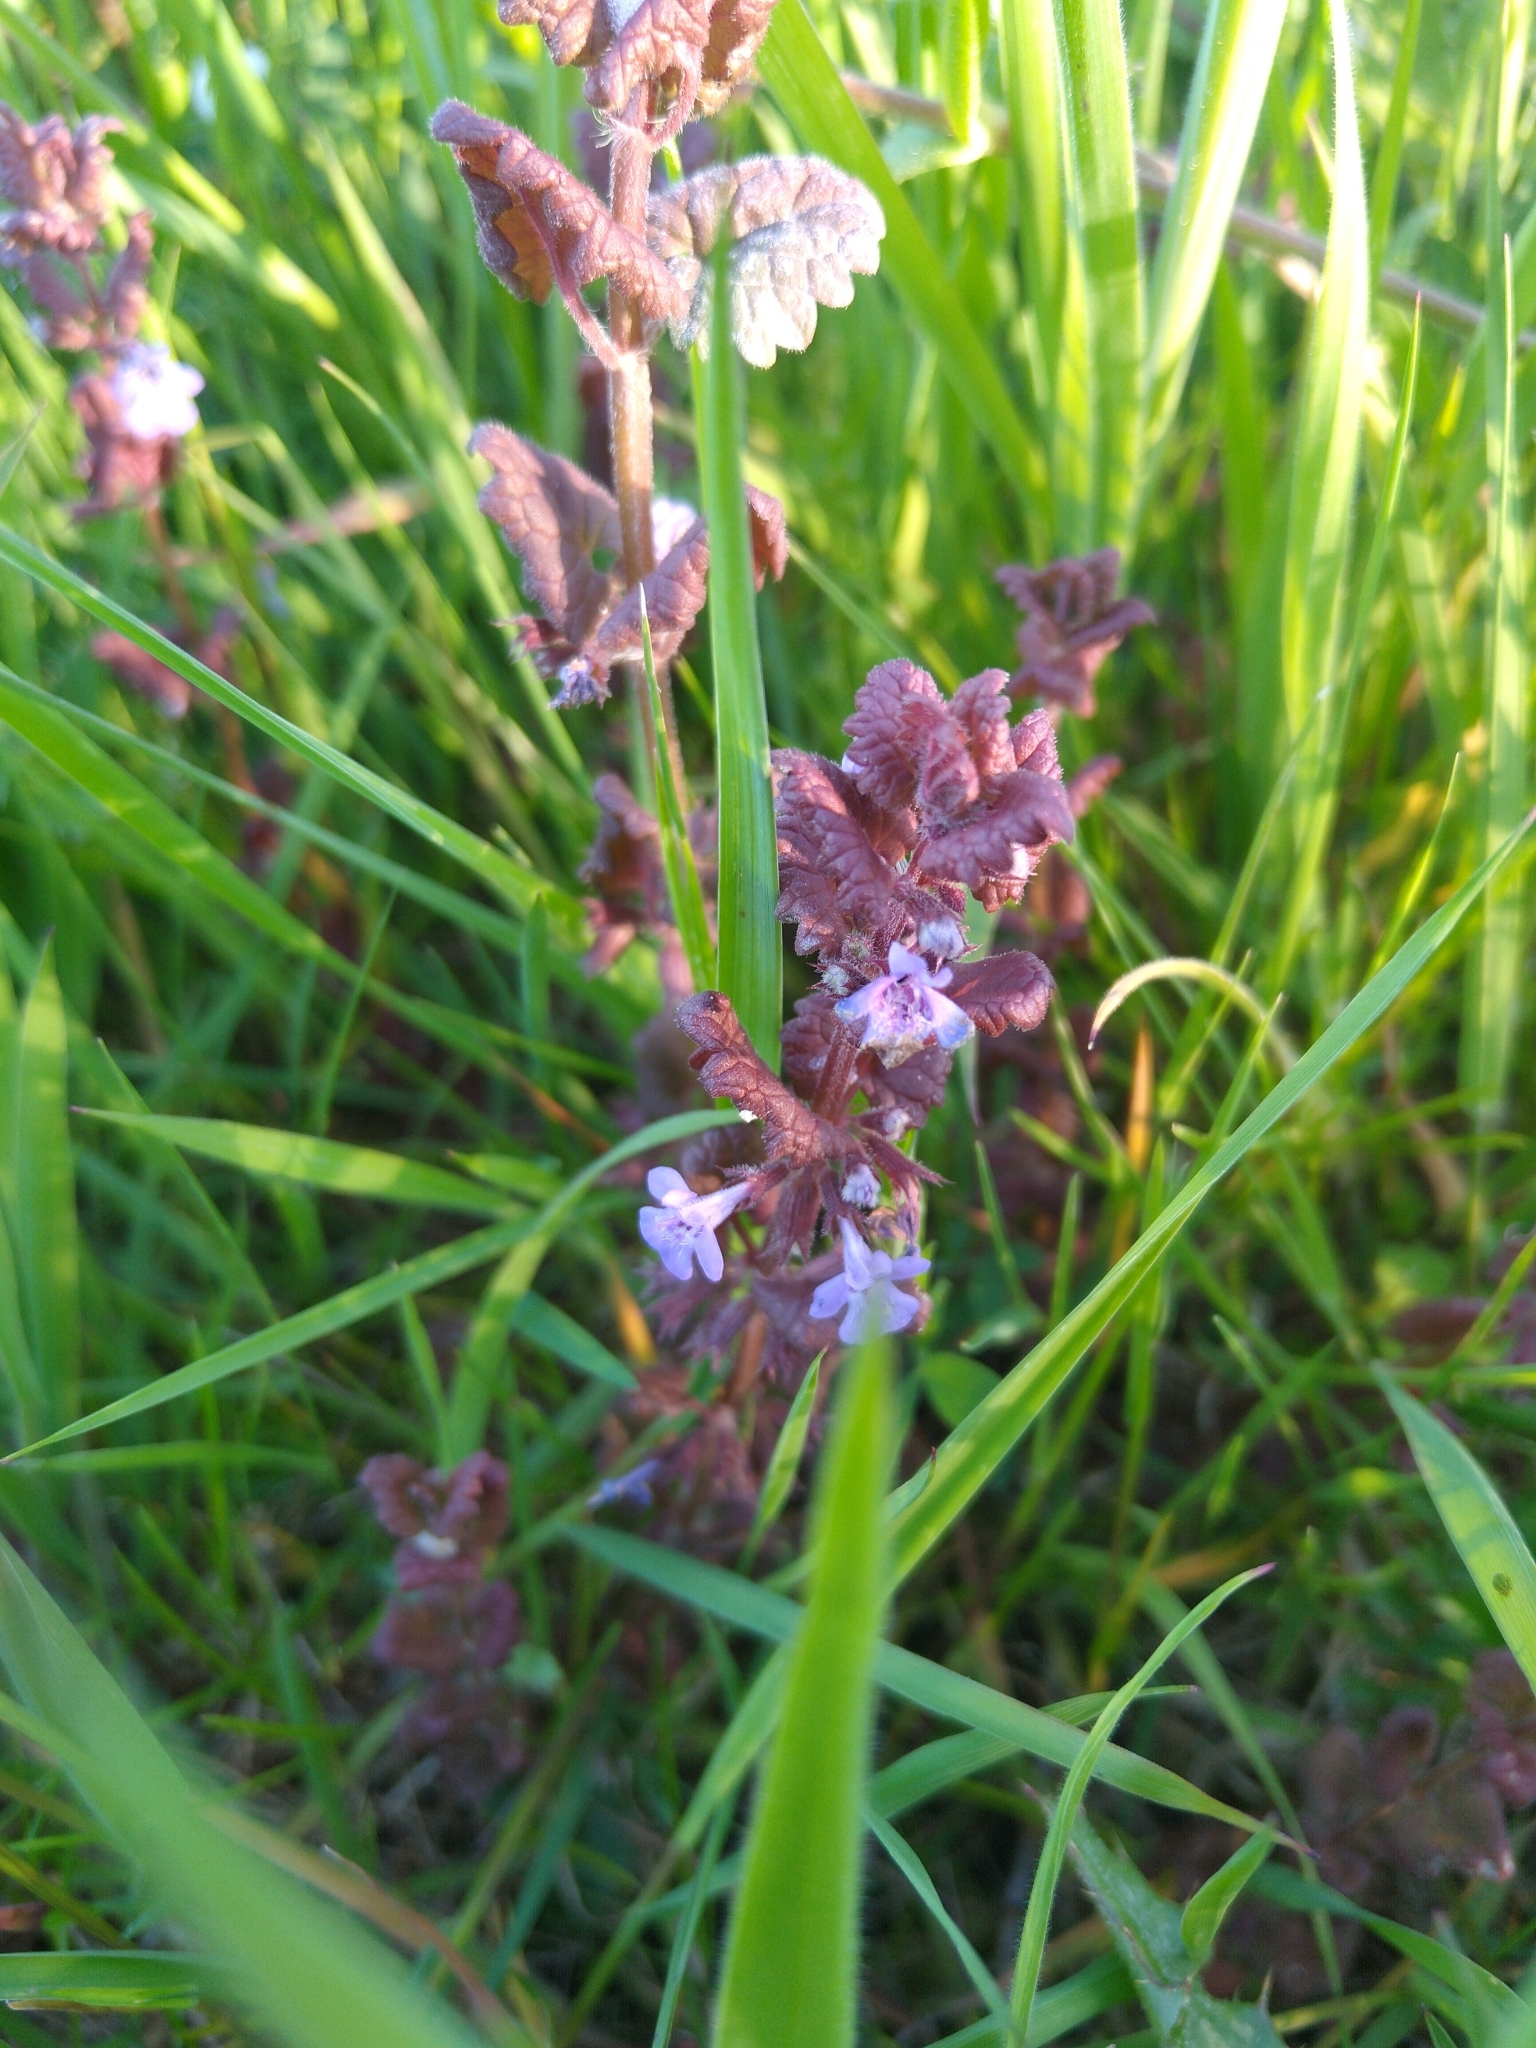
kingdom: Plantae
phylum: Tracheophyta
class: Magnoliopsida
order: Lamiales
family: Lamiaceae
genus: Glechoma
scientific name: Glechoma hederacea
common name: Ground ivy
